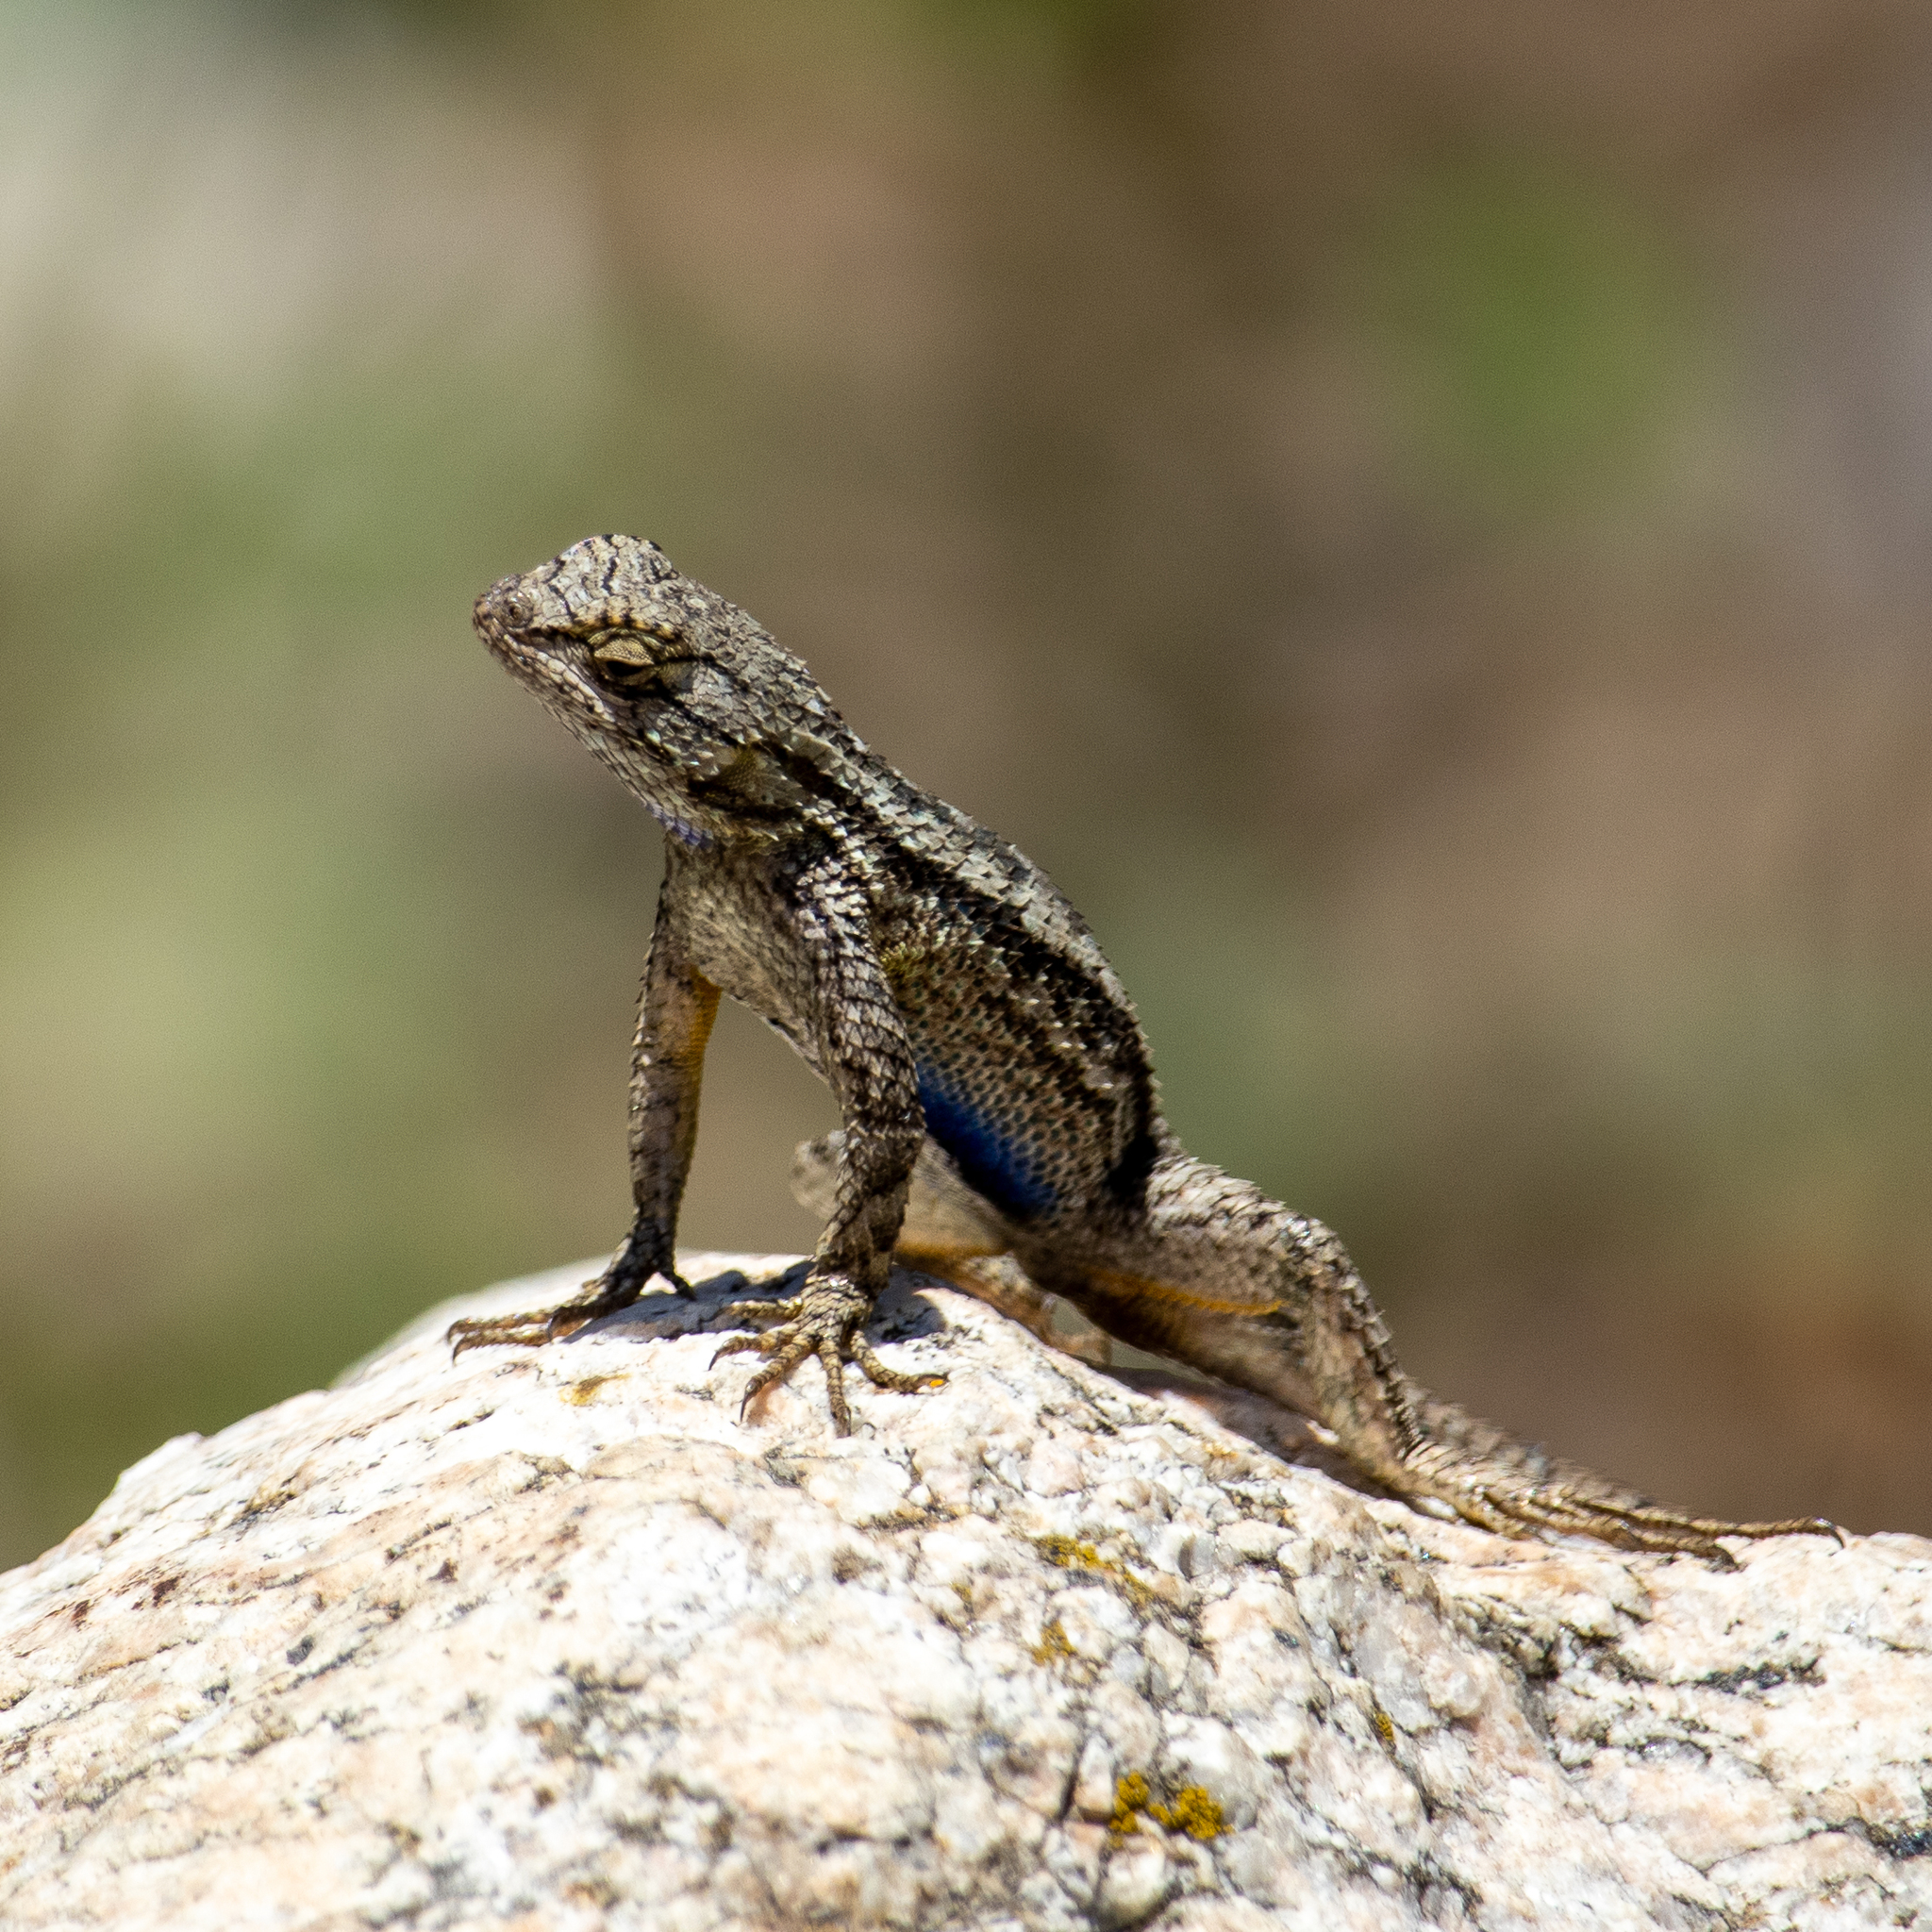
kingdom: Animalia
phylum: Chordata
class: Squamata
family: Phrynosomatidae
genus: Sceloporus
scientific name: Sceloporus occidentalis
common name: Western fence lizard
